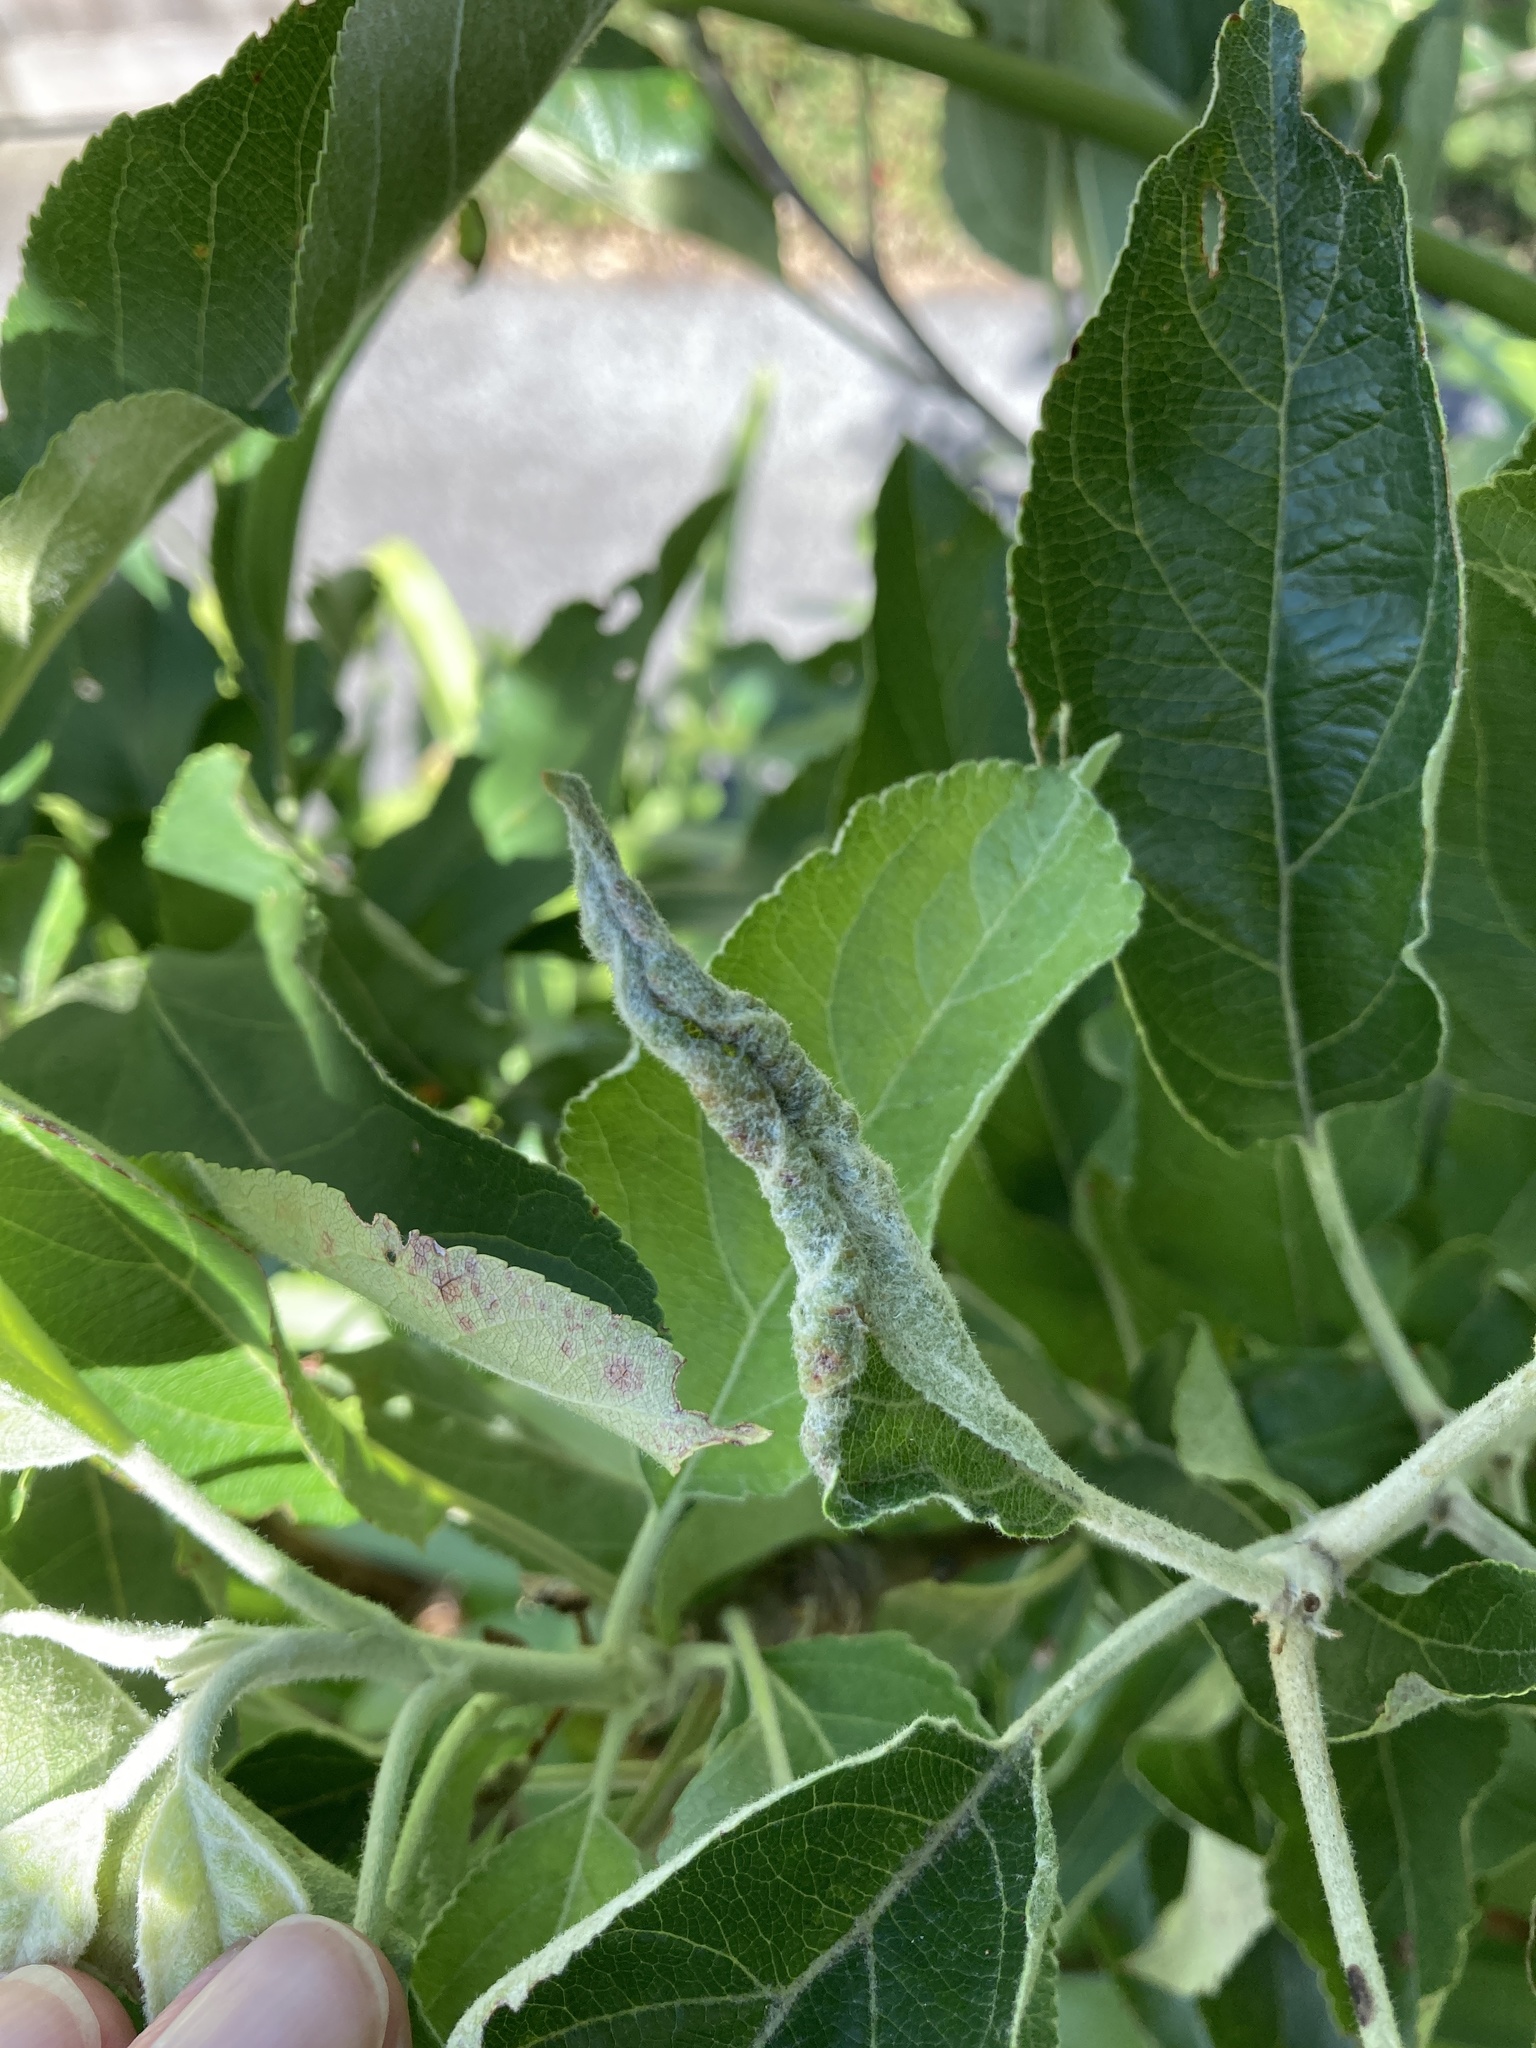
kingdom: Animalia
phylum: Arthropoda
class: Insecta
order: Diptera
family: Cecidomyiidae
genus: Dasineura
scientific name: Dasineura mali
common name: Apple leaf midge
